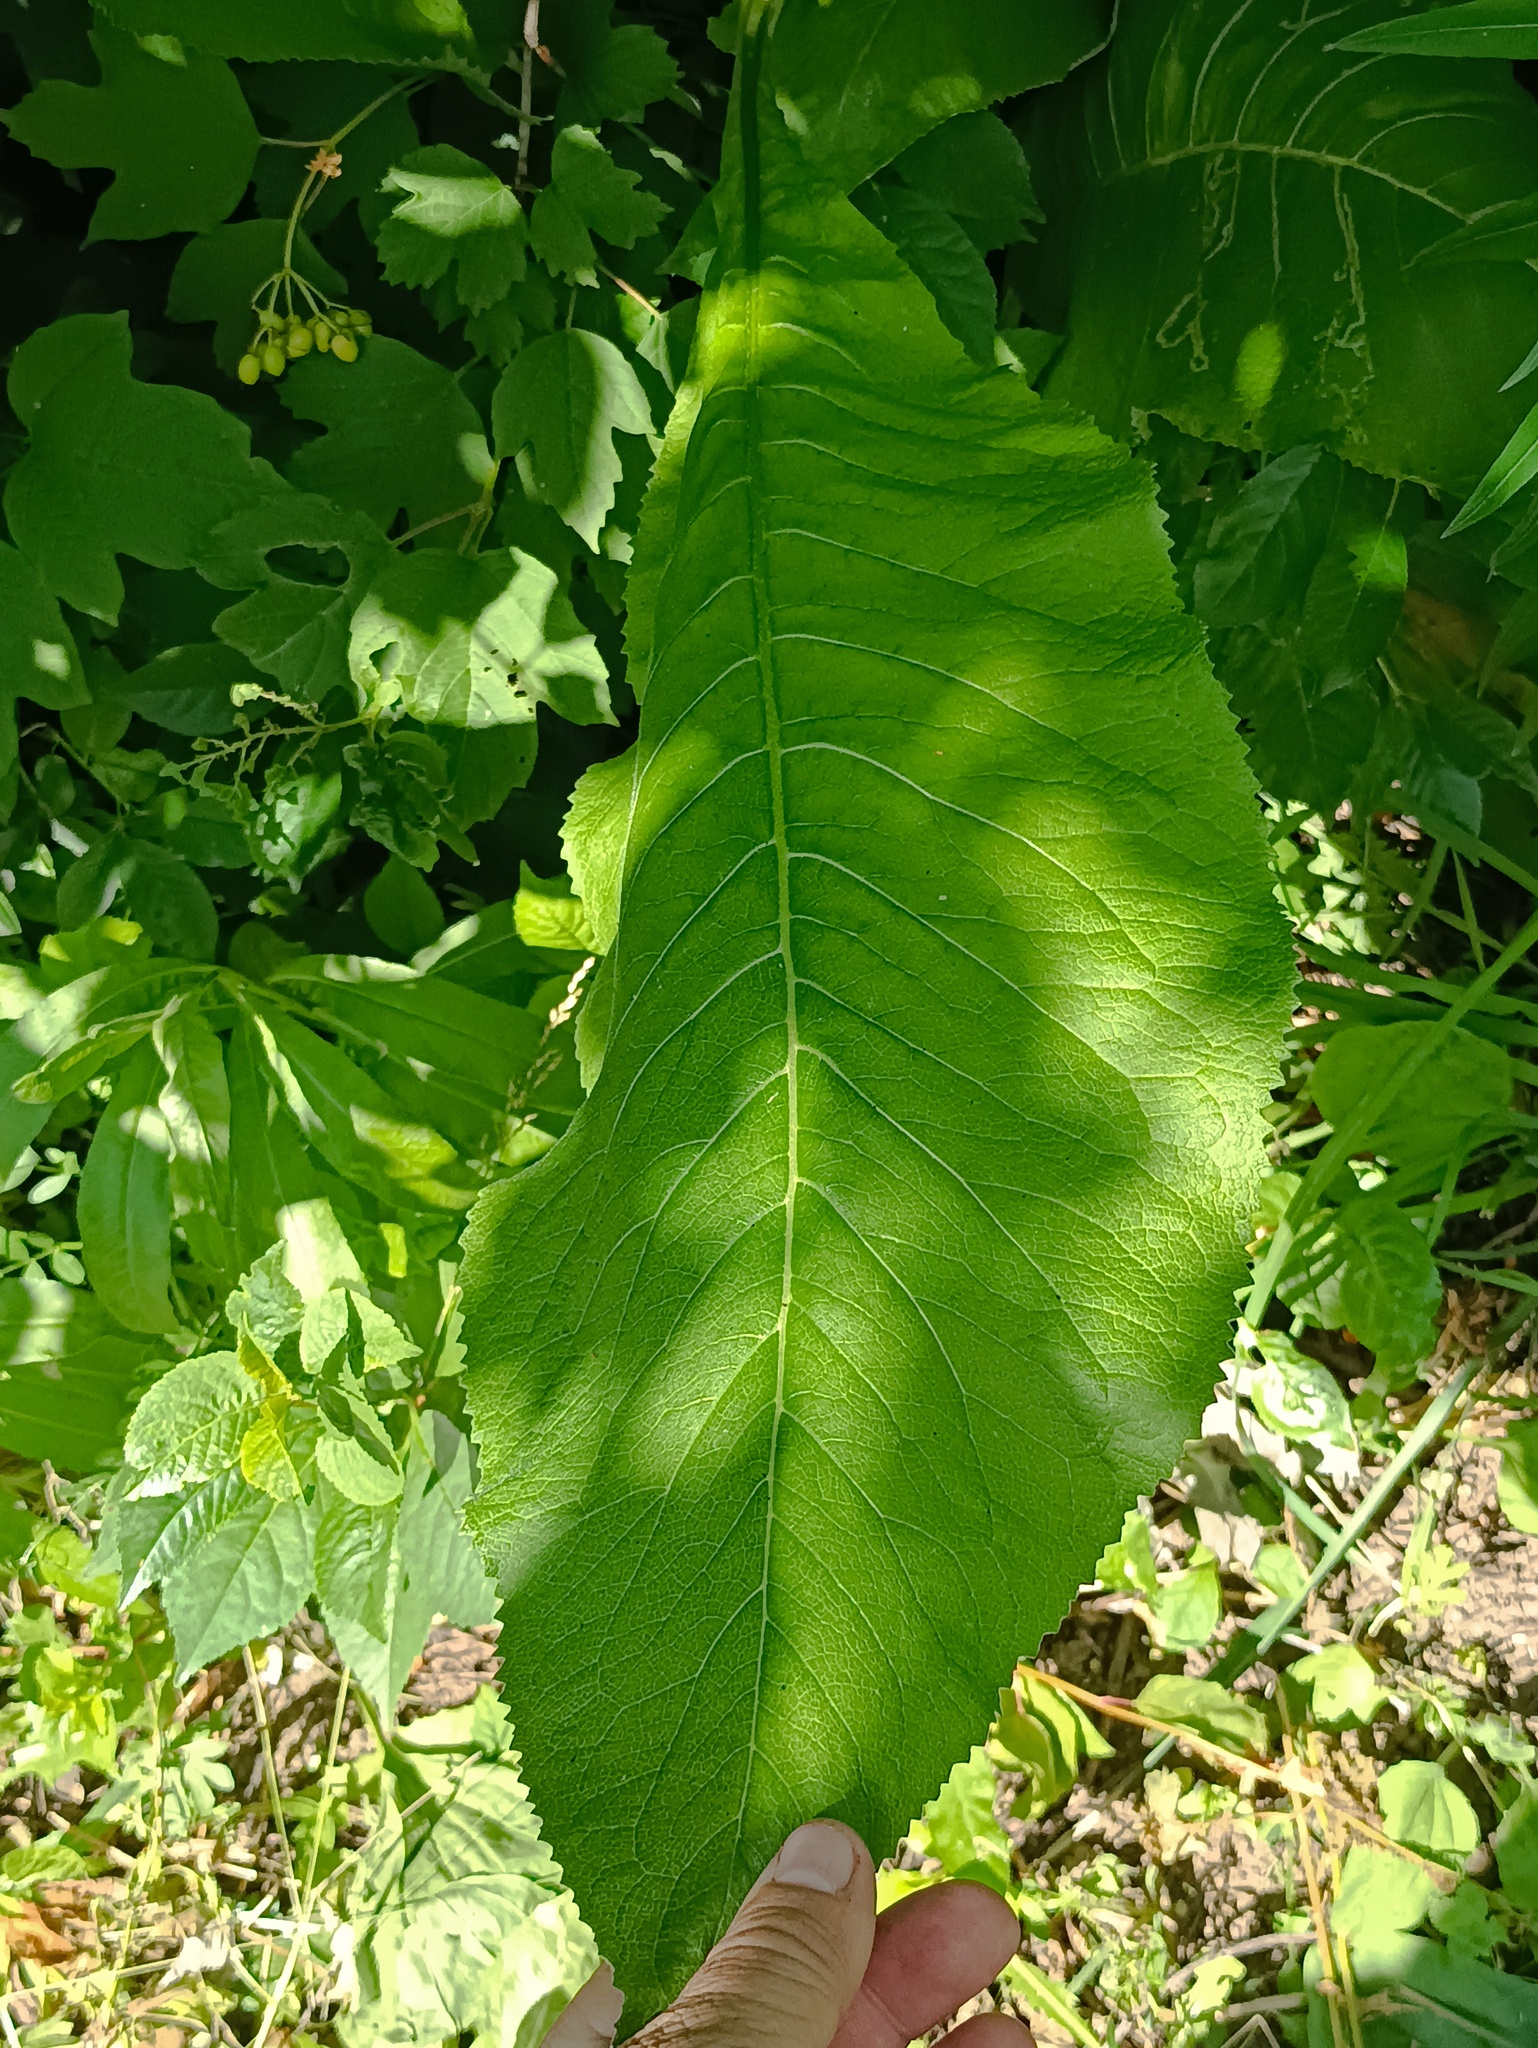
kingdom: Plantae
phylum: Tracheophyta
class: Magnoliopsida
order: Asterales
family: Asteraceae
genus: Inula
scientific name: Inula helenium
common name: Elecampane
